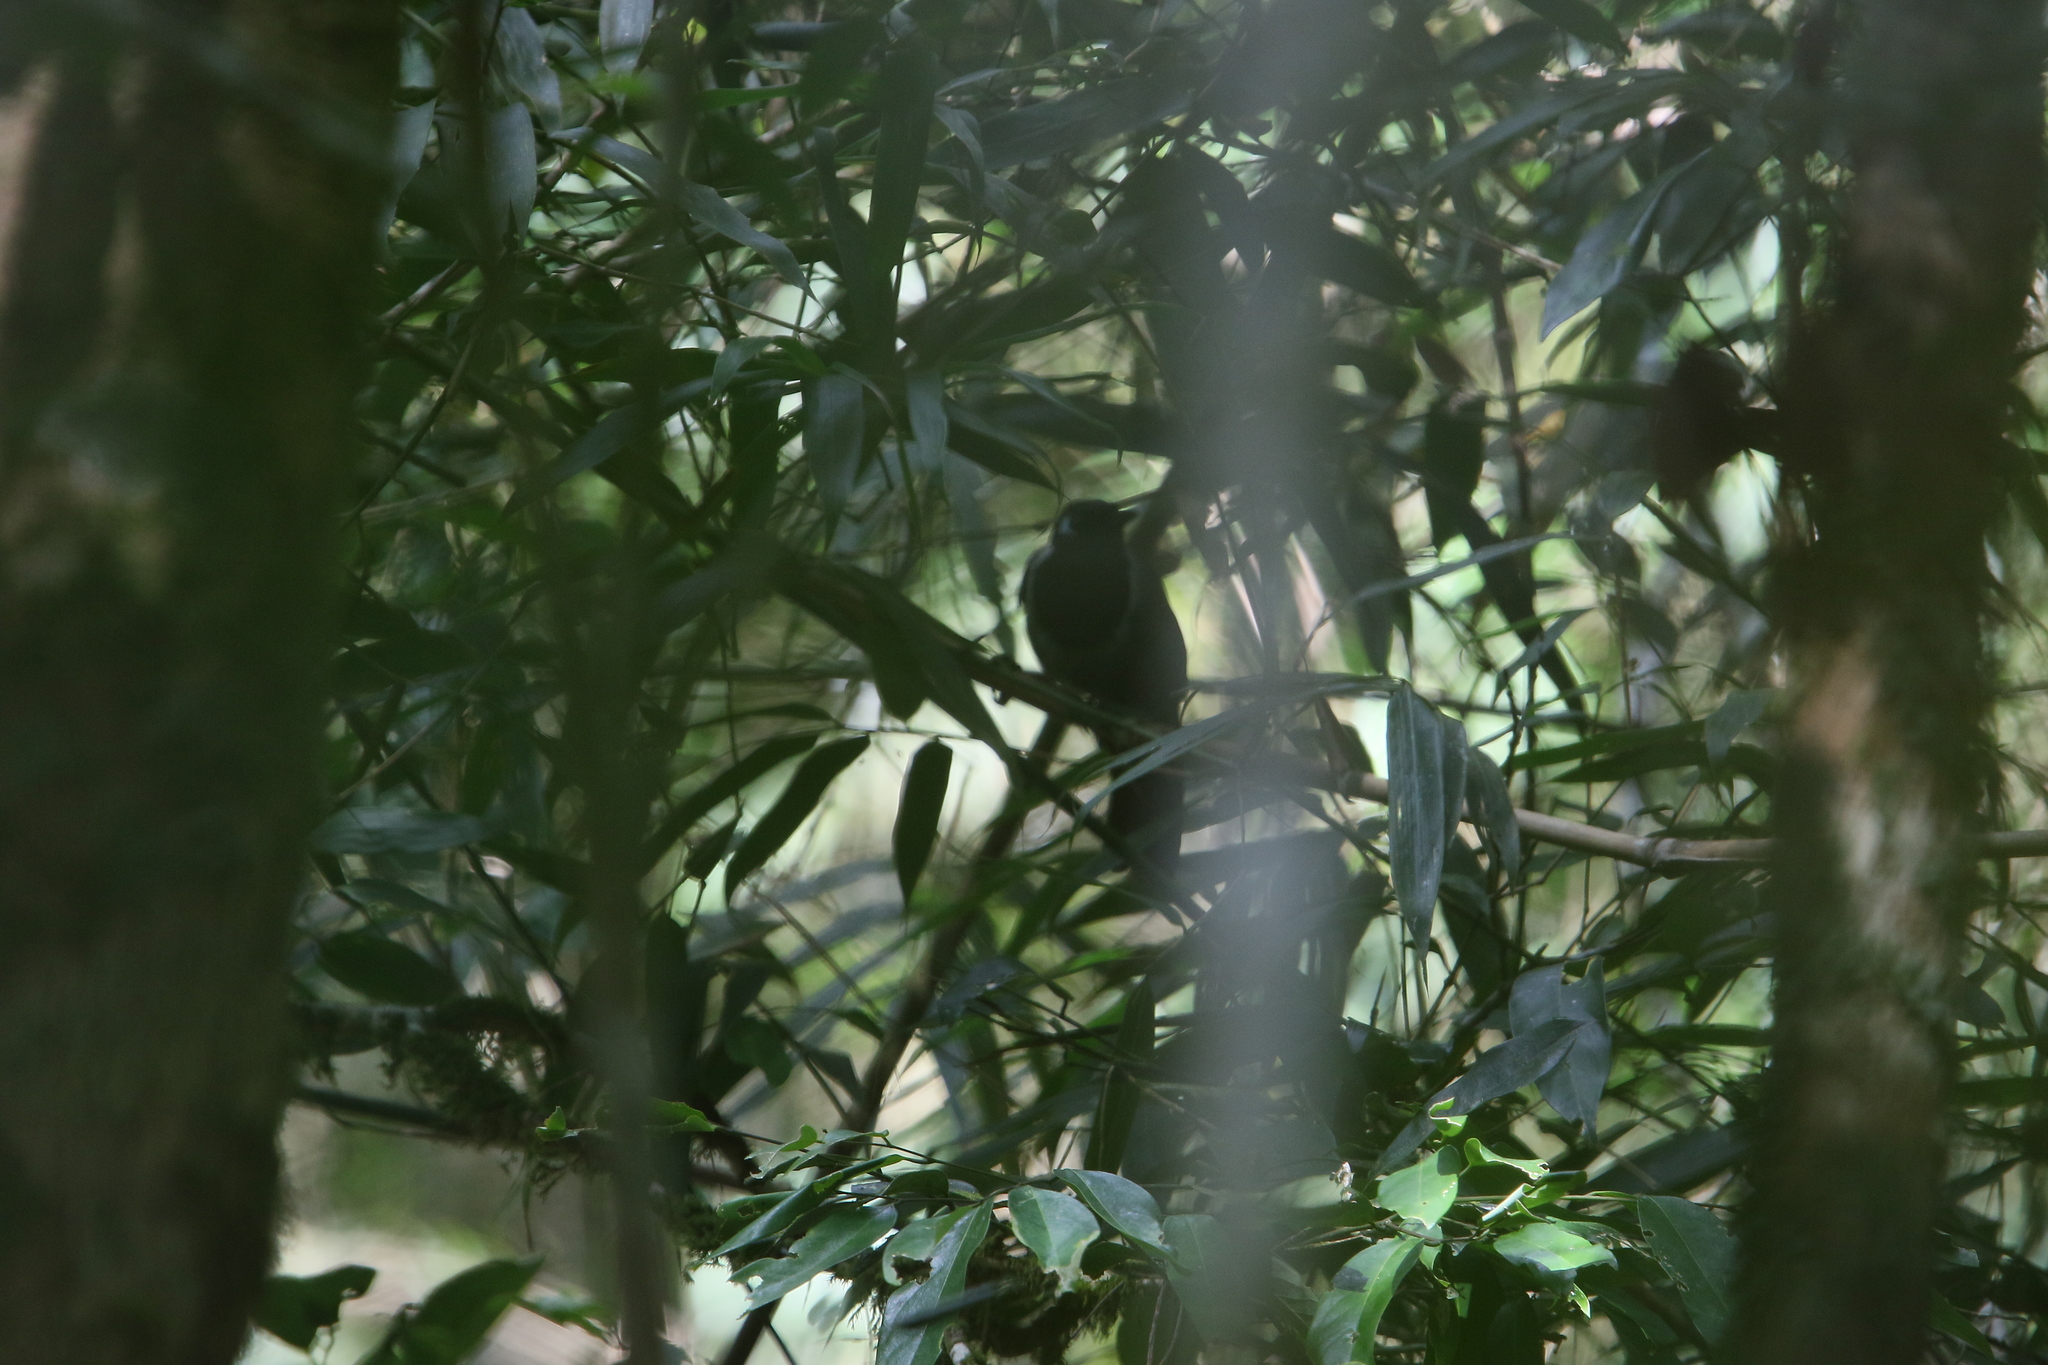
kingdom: Animalia
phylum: Chordata
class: Aves
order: Passeriformes
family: Leiothrichidae
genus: Garrulax
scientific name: Garrulax milleti
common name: Black-hooded laughingthrush
